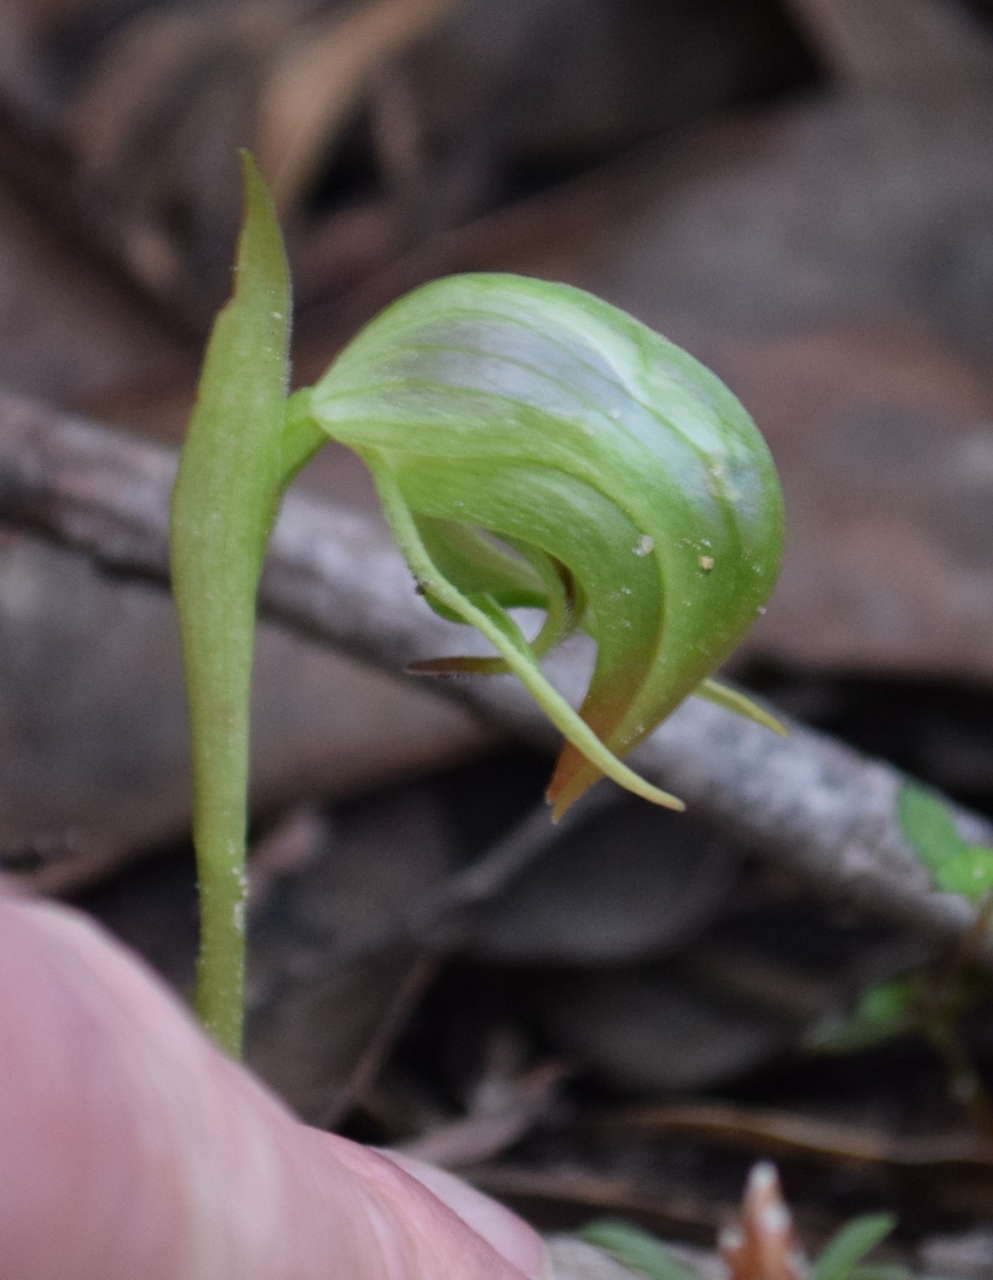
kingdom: Plantae
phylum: Tracheophyta
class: Liliopsida
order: Asparagales
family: Orchidaceae
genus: Pterostylis
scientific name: Pterostylis nutans
